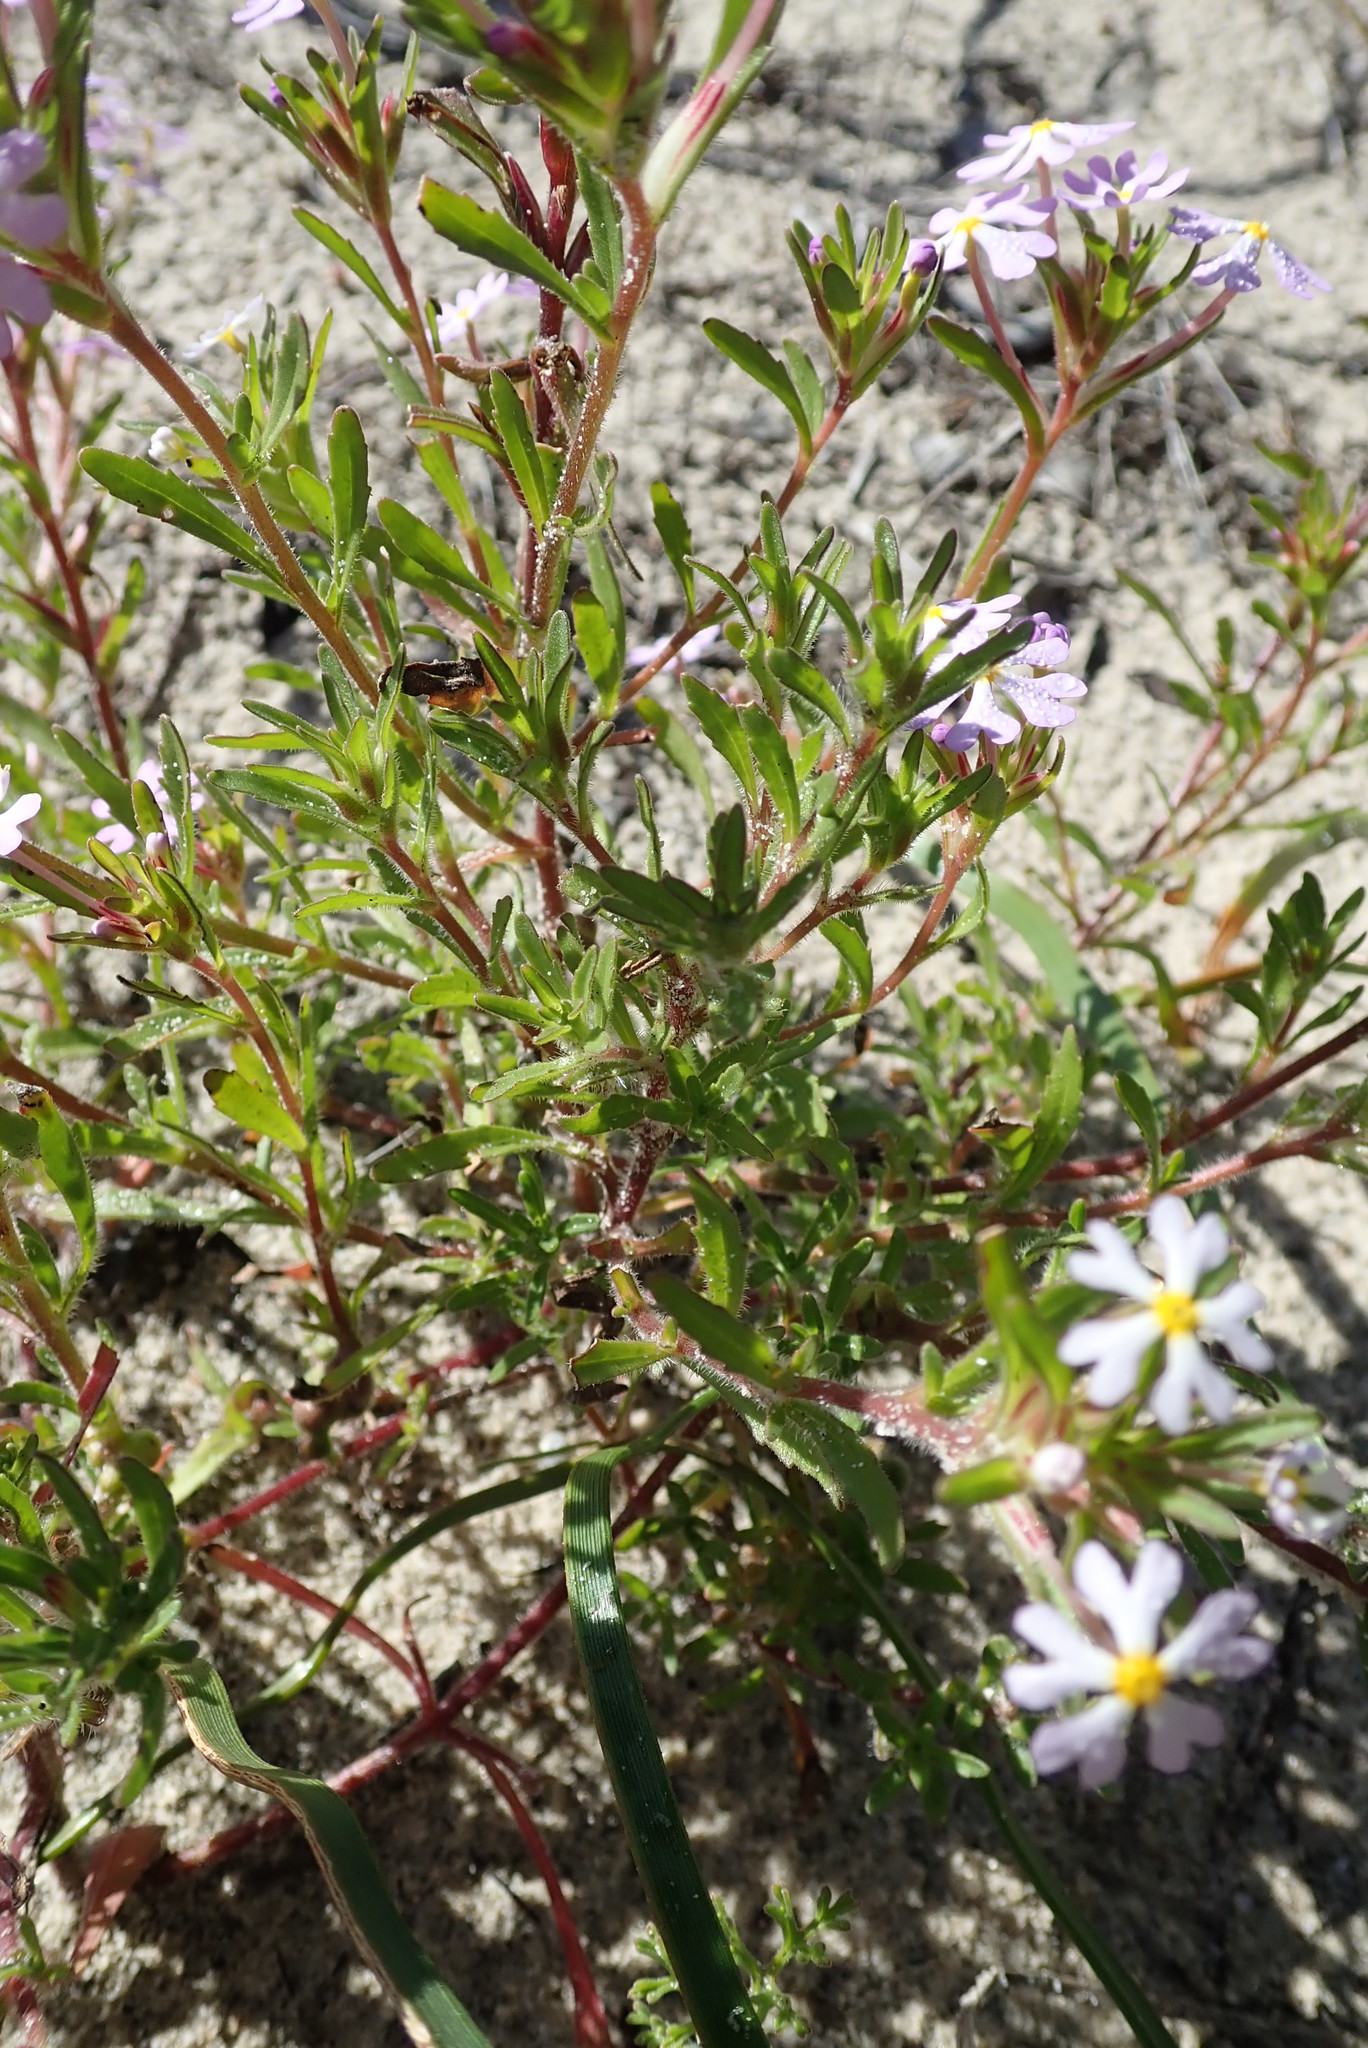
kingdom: Plantae
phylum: Tracheophyta
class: Magnoliopsida
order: Lamiales
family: Scrophulariaceae
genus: Zaluzianskya
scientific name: Zaluzianskya villosa
